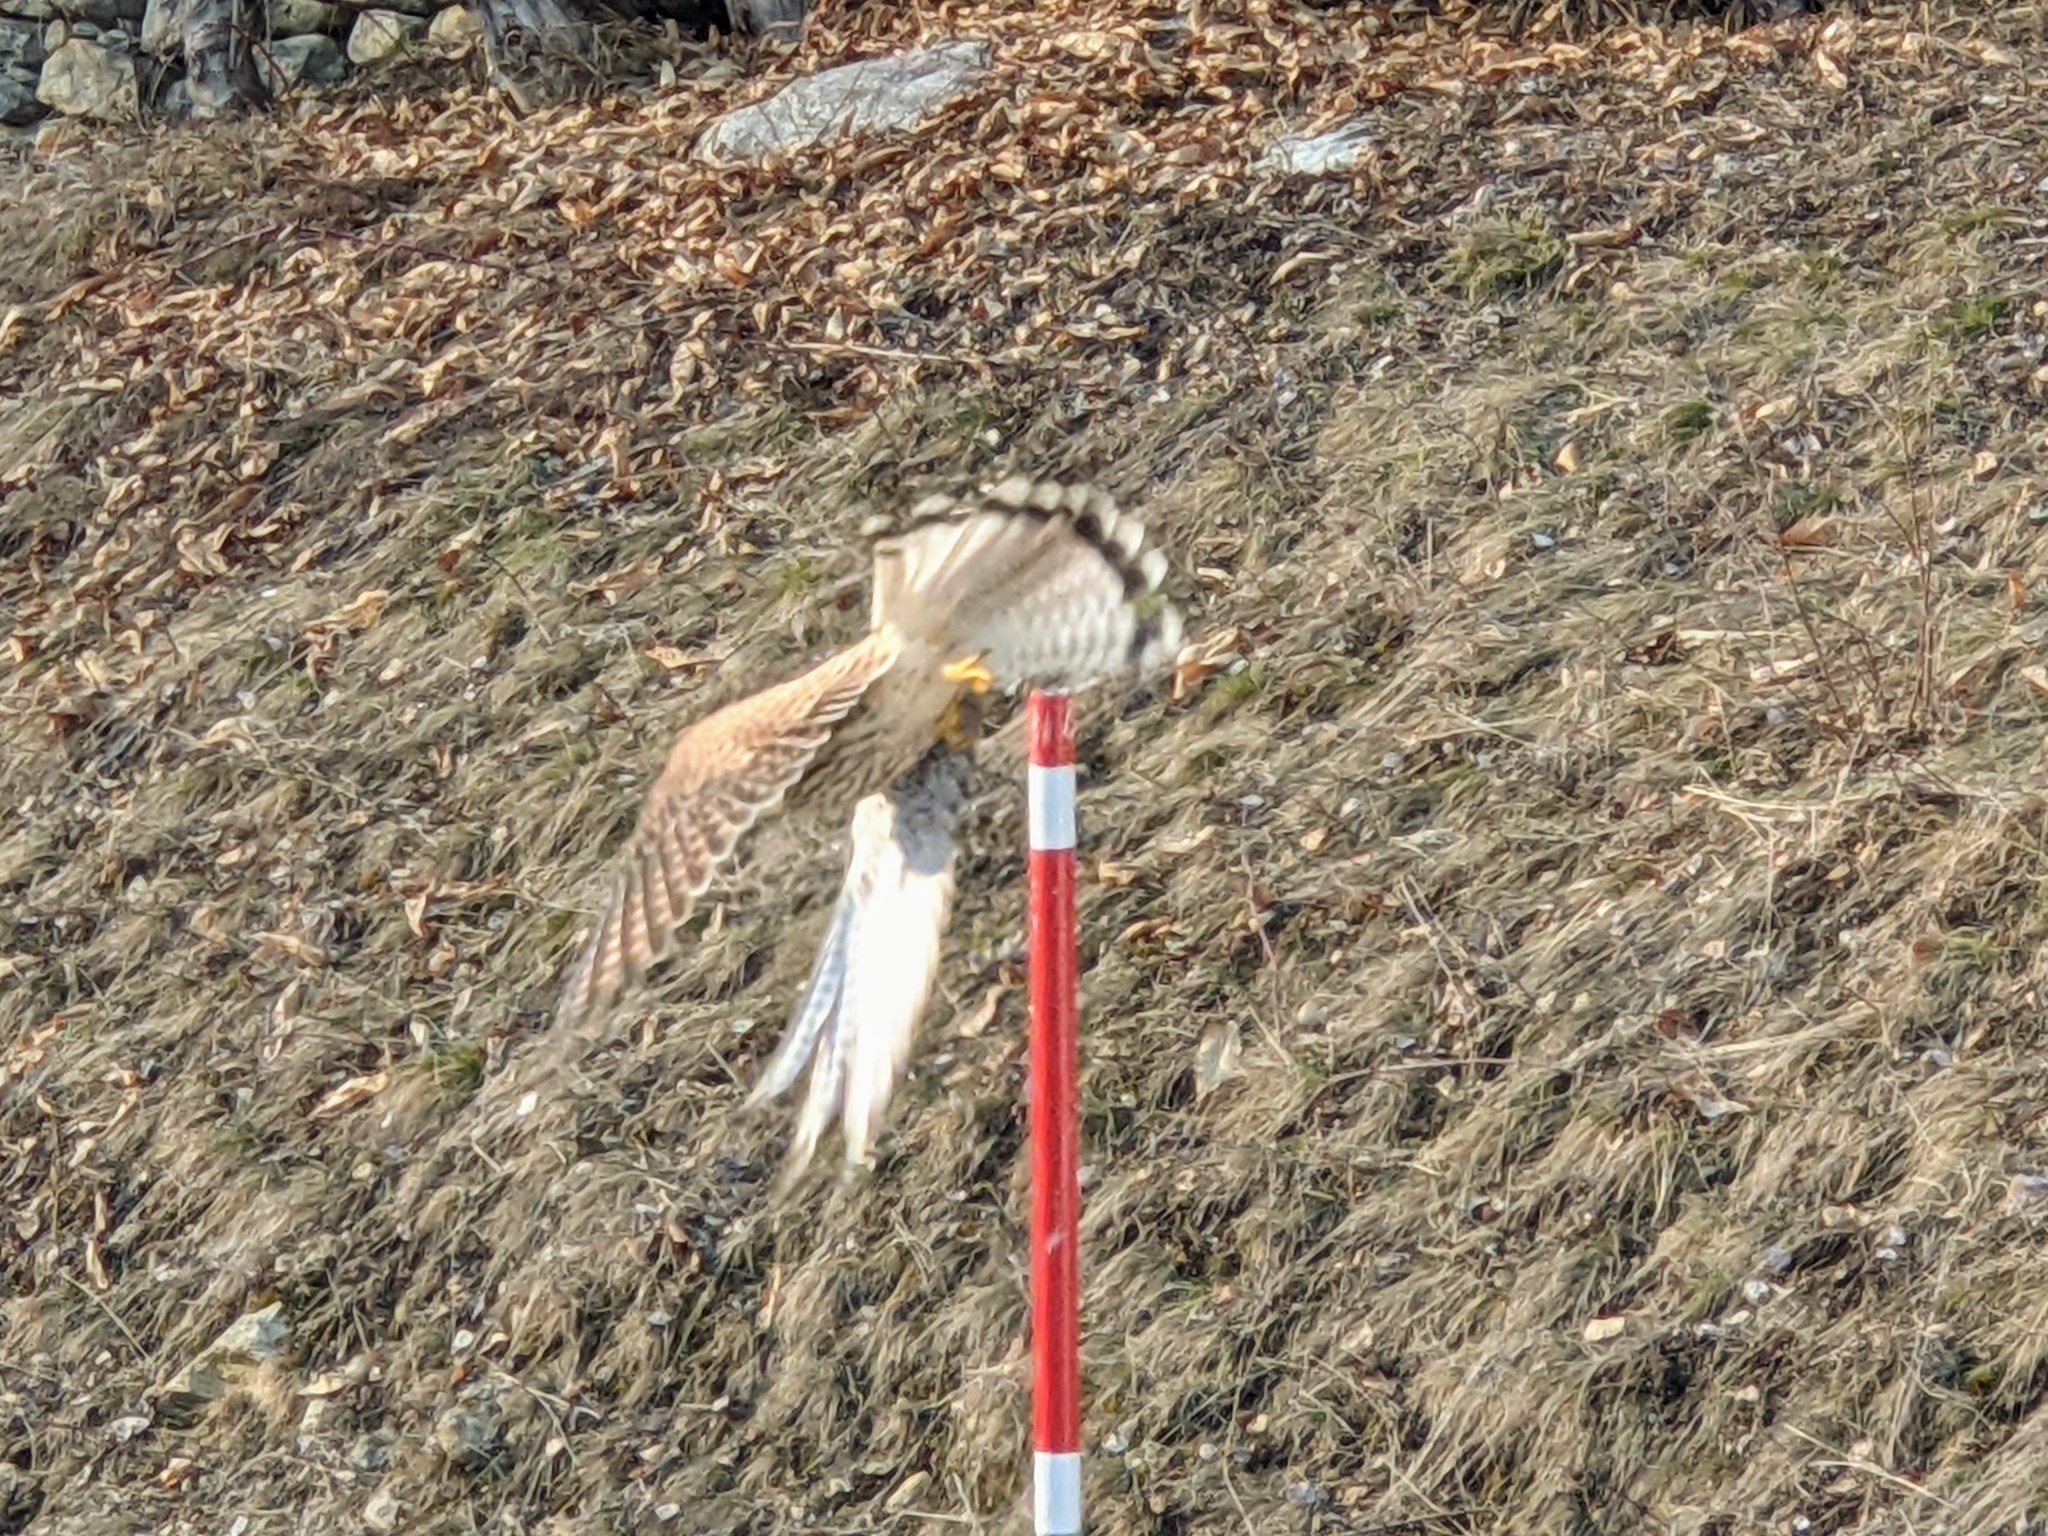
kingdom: Animalia
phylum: Chordata
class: Aves
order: Falconiformes
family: Falconidae
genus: Falco
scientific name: Falco tinnunculus
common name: Common kestrel
